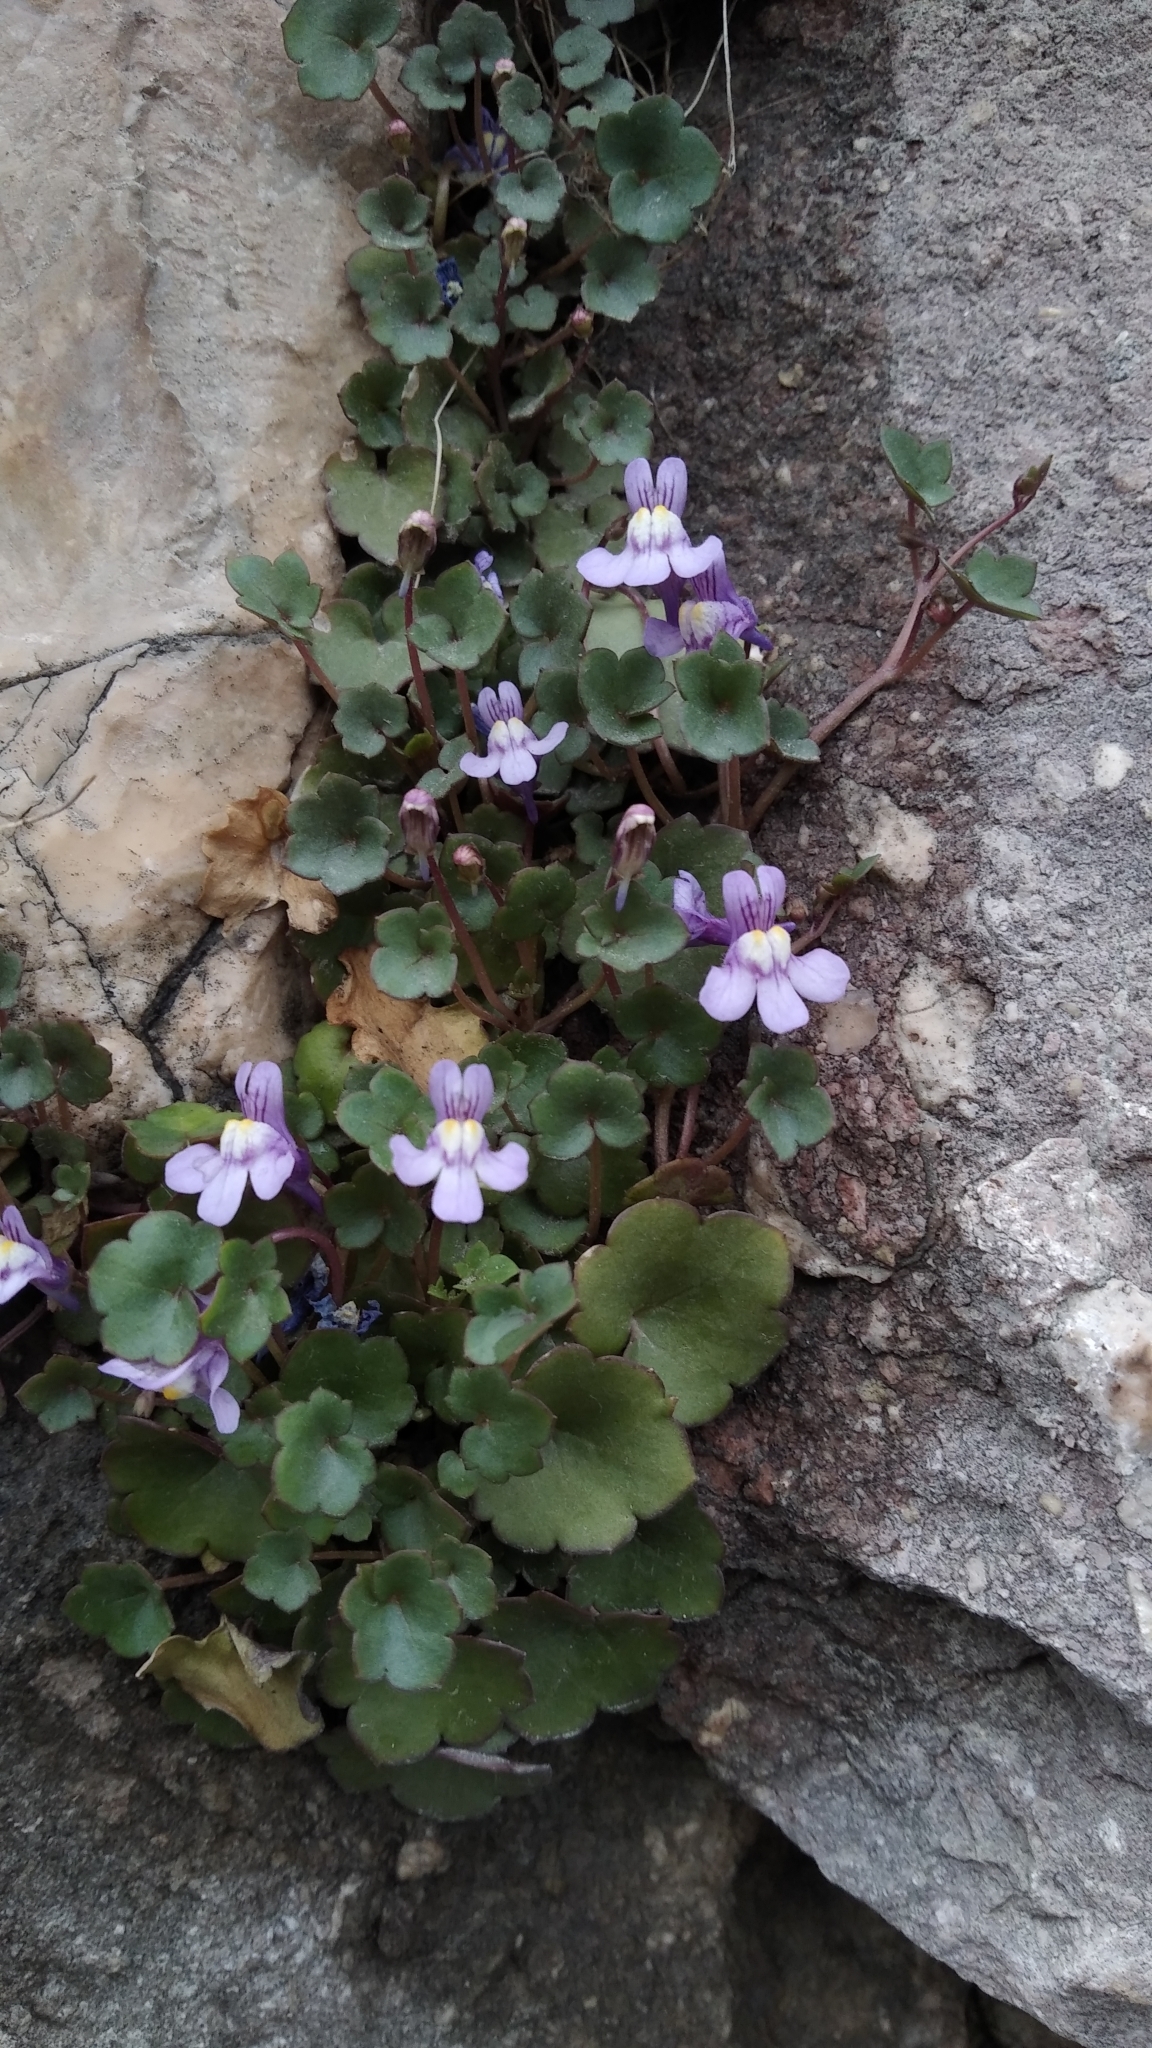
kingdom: Plantae
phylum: Tracheophyta
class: Magnoliopsida
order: Lamiales
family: Plantaginaceae
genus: Cymbalaria
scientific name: Cymbalaria muralis
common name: Ivy-leaved toadflax
